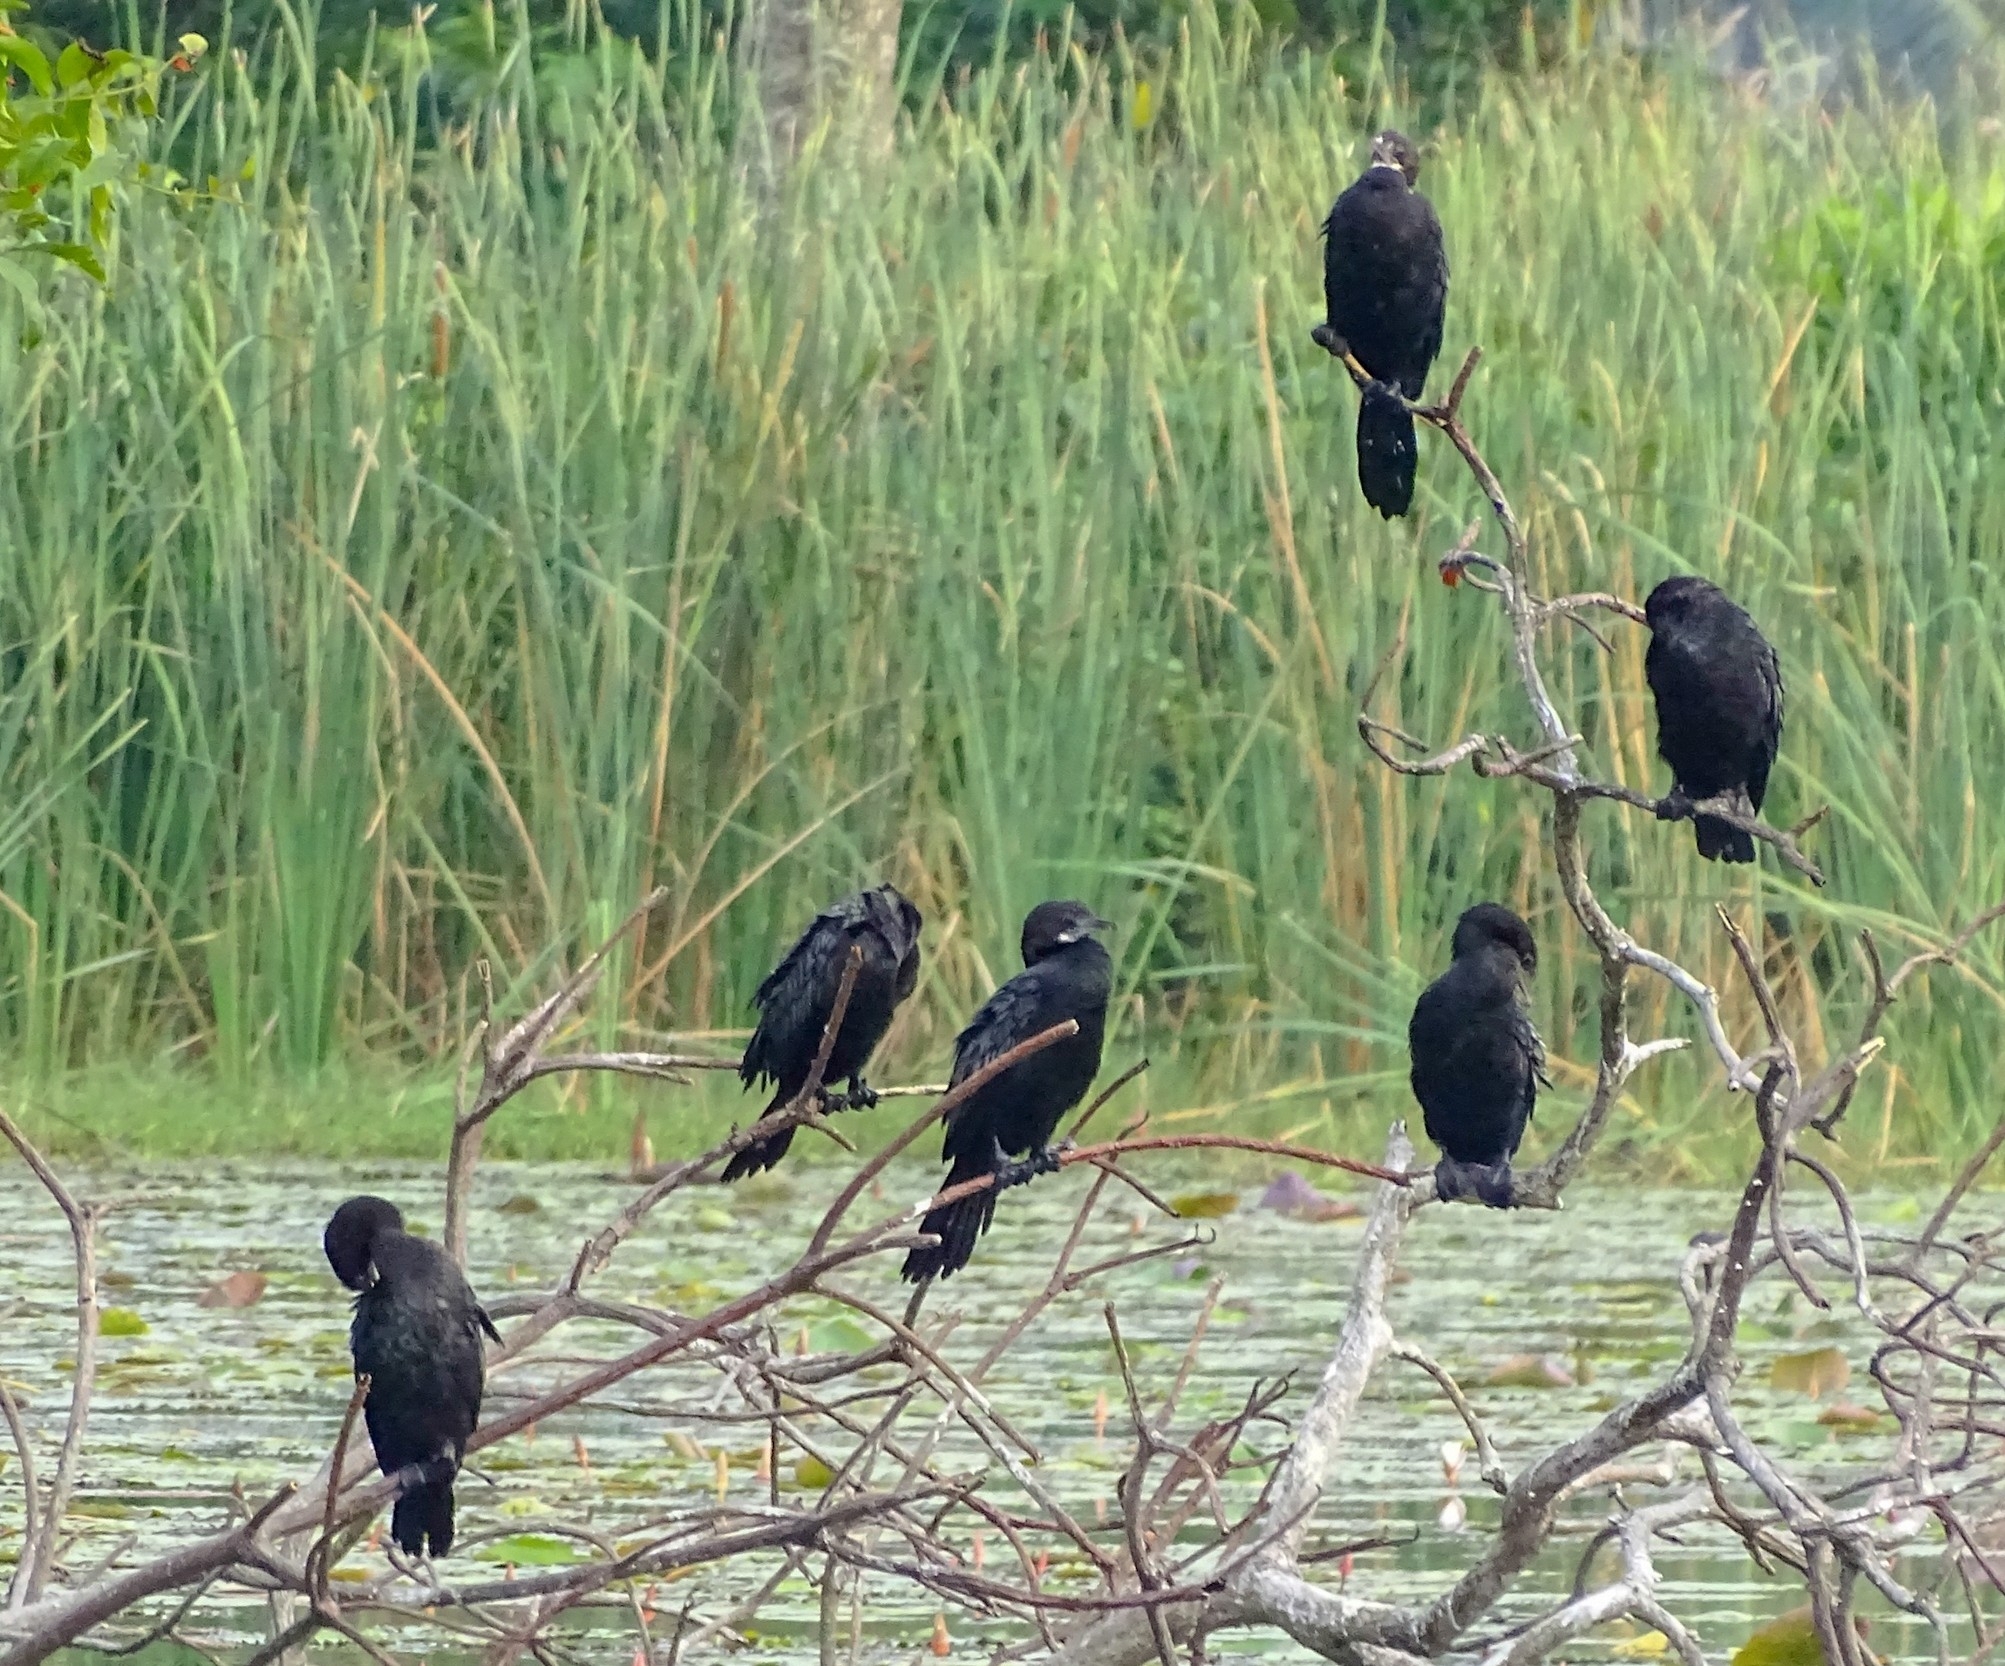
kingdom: Animalia
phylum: Chordata
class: Aves
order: Suliformes
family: Phalacrocoracidae
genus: Microcarbo
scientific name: Microcarbo niger
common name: Little cormorant
